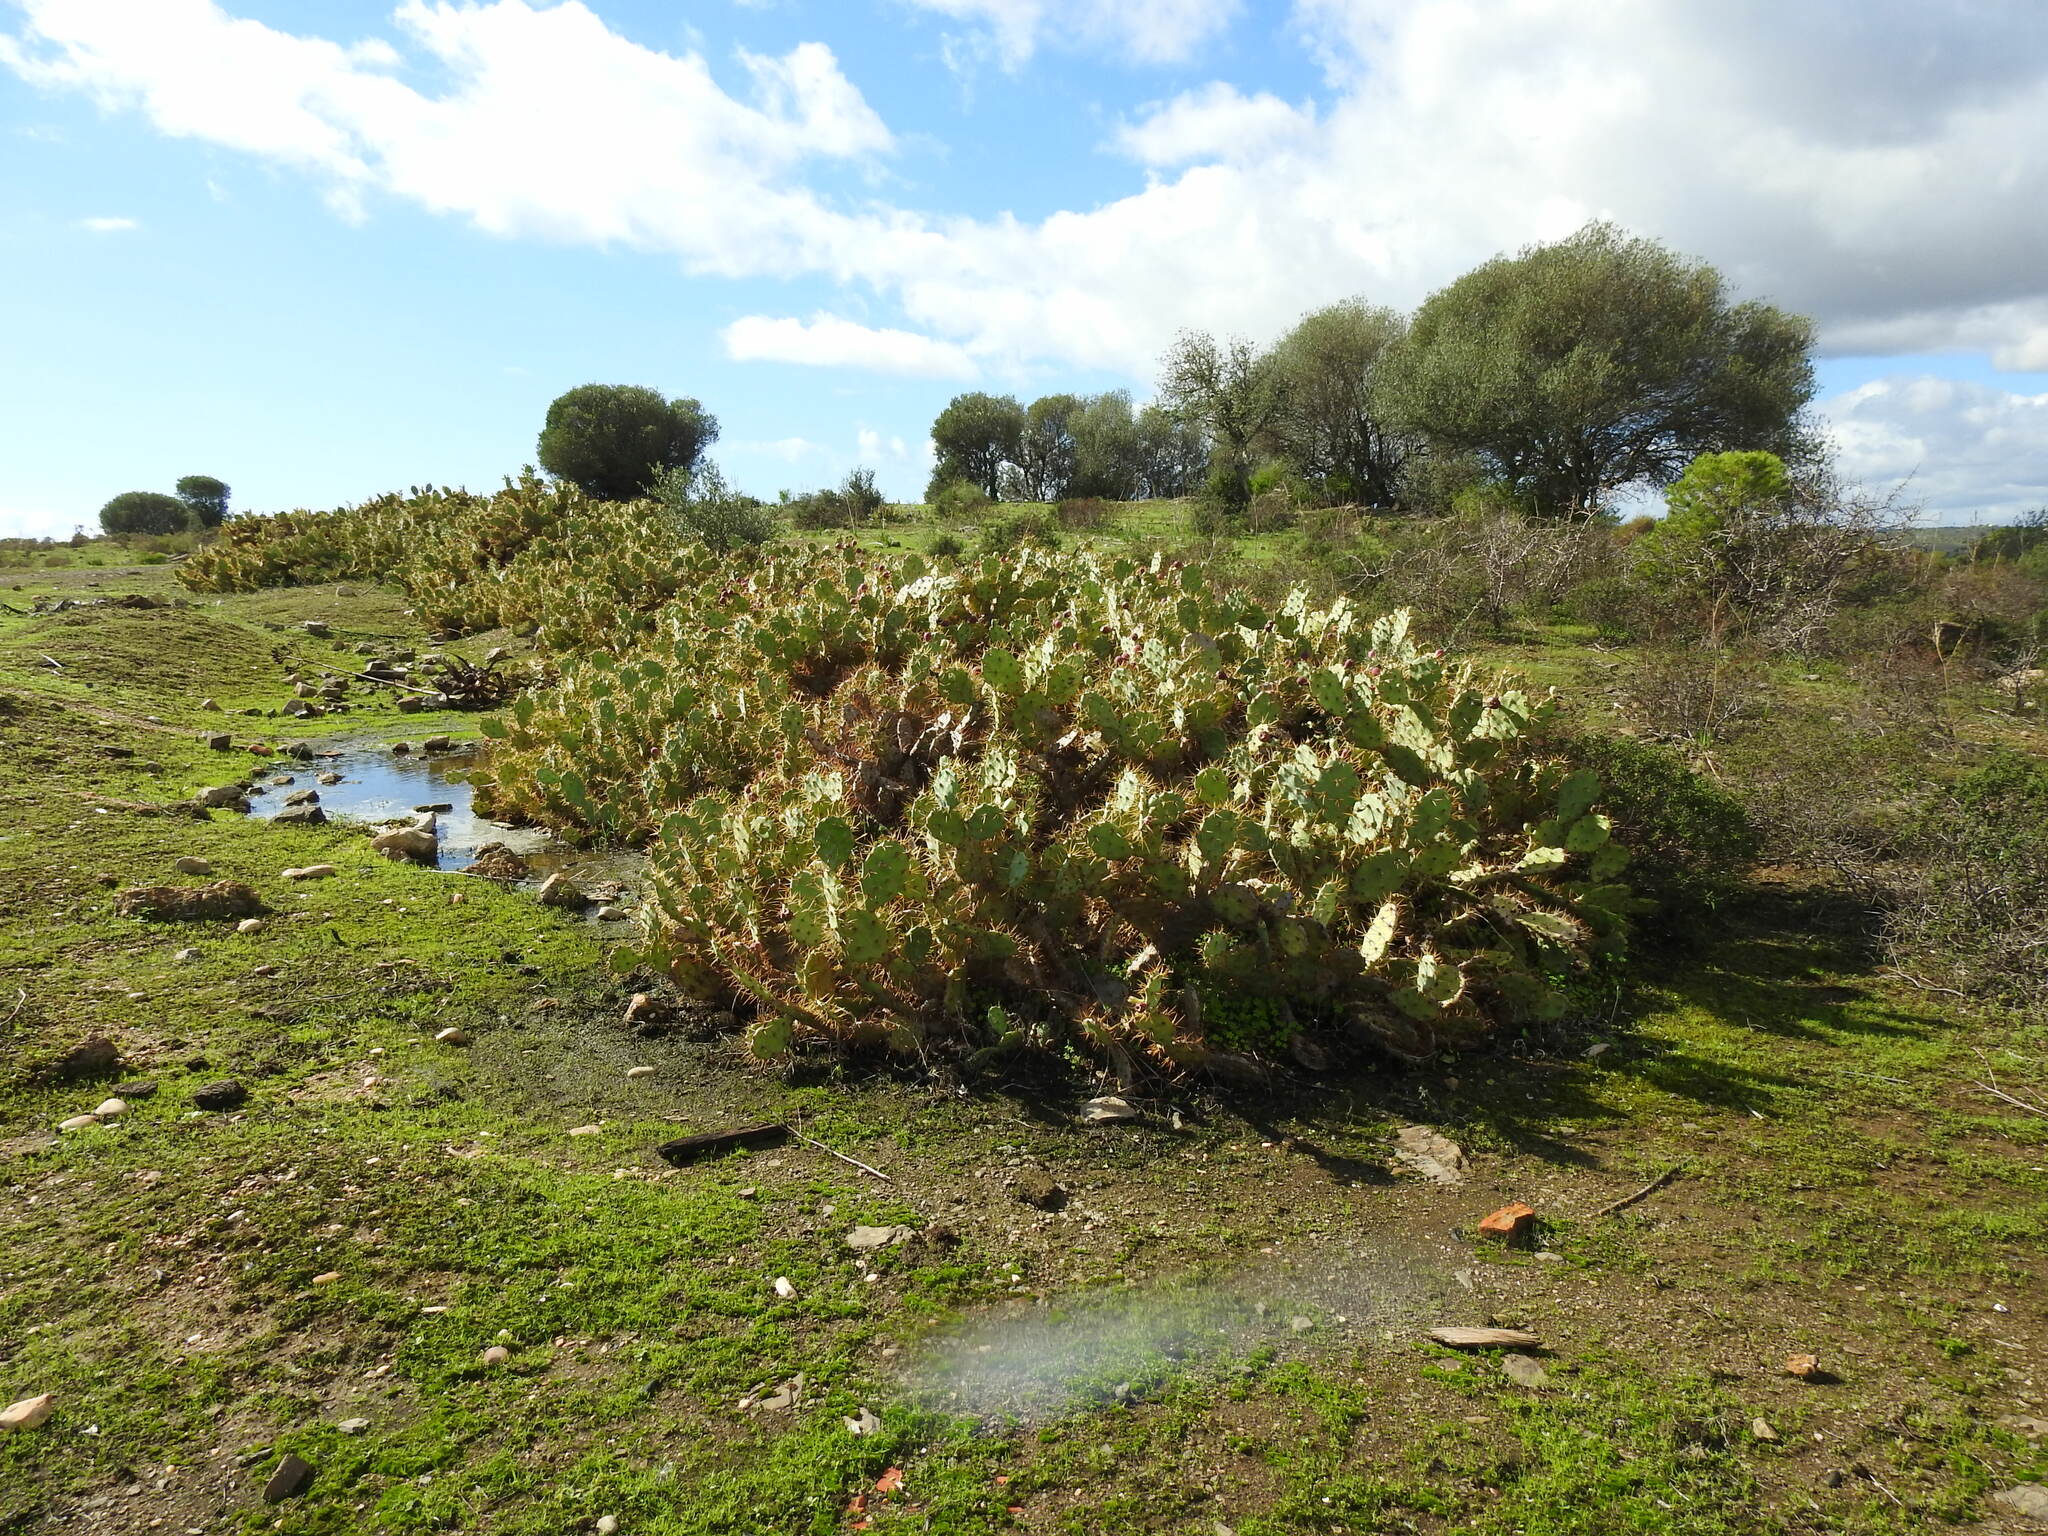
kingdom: Plantae
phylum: Tracheophyta
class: Magnoliopsida
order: Caryophyllales
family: Cactaceae
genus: Opuntia
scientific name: Opuntia stricta
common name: Erect pricklypear
